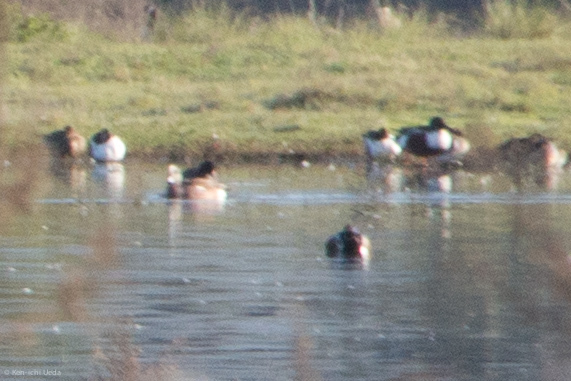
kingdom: Animalia
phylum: Chordata
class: Aves
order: Anseriformes
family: Anatidae
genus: Mareca
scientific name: Mareca americana
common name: American wigeon
